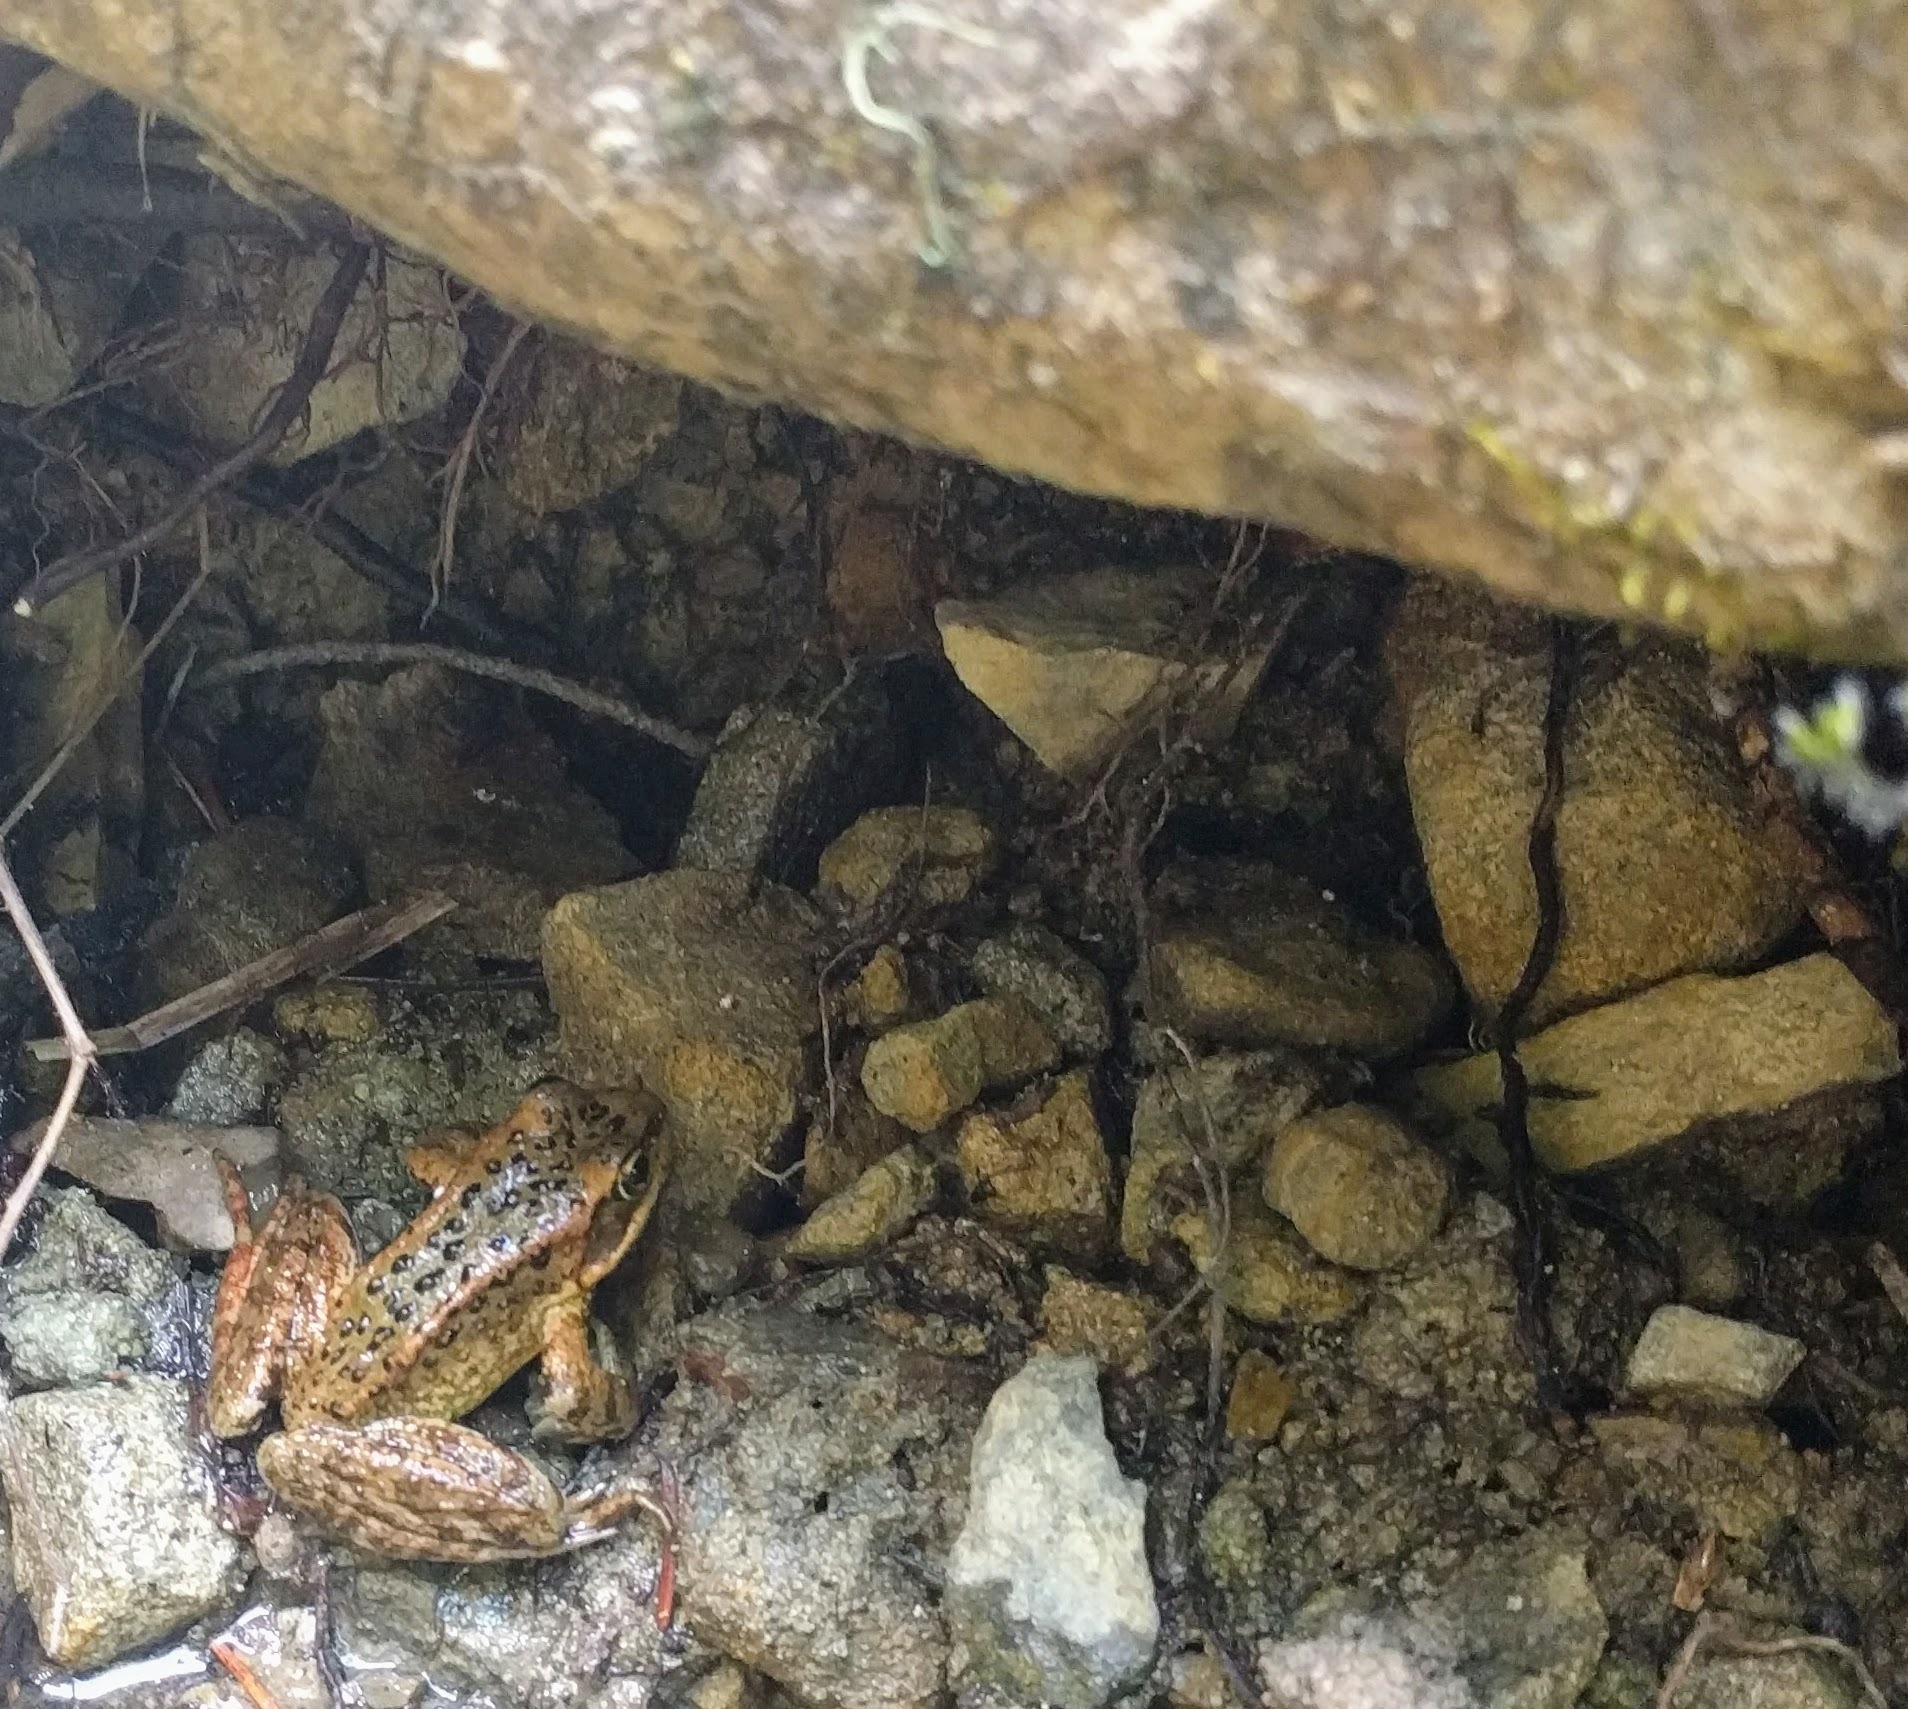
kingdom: Animalia
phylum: Chordata
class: Amphibia
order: Anura
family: Ranidae
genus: Rana
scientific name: Rana cascadae
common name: Cascades frog
